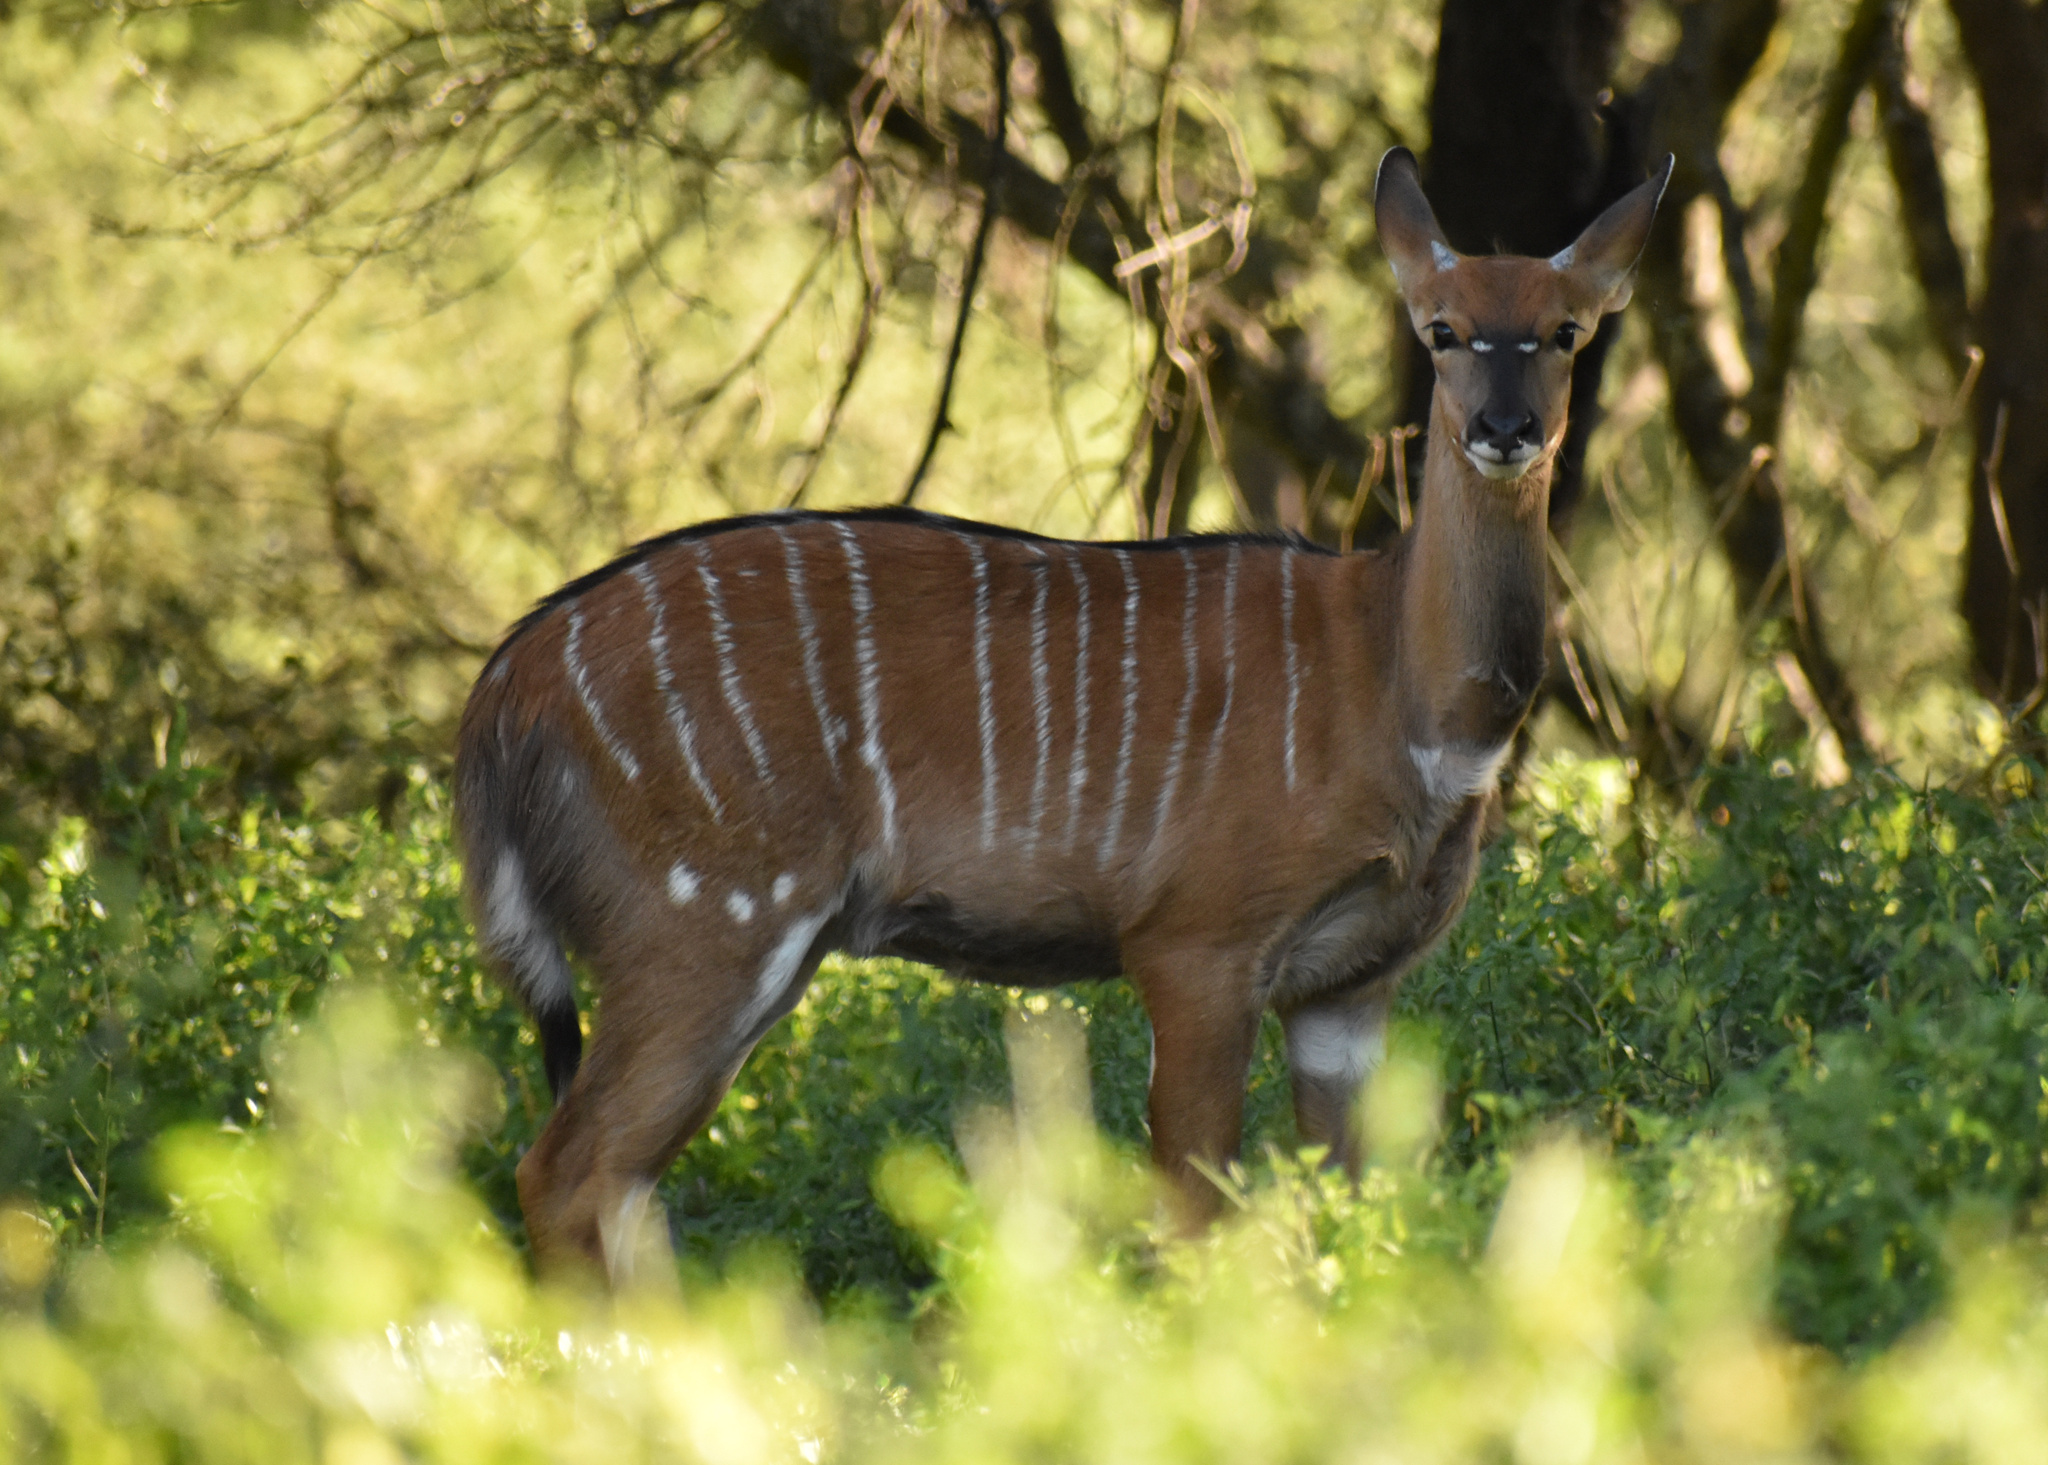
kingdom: Animalia
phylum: Chordata
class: Mammalia
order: Artiodactyla
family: Bovidae
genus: Tragelaphus
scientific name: Tragelaphus angasii
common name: Nyala
